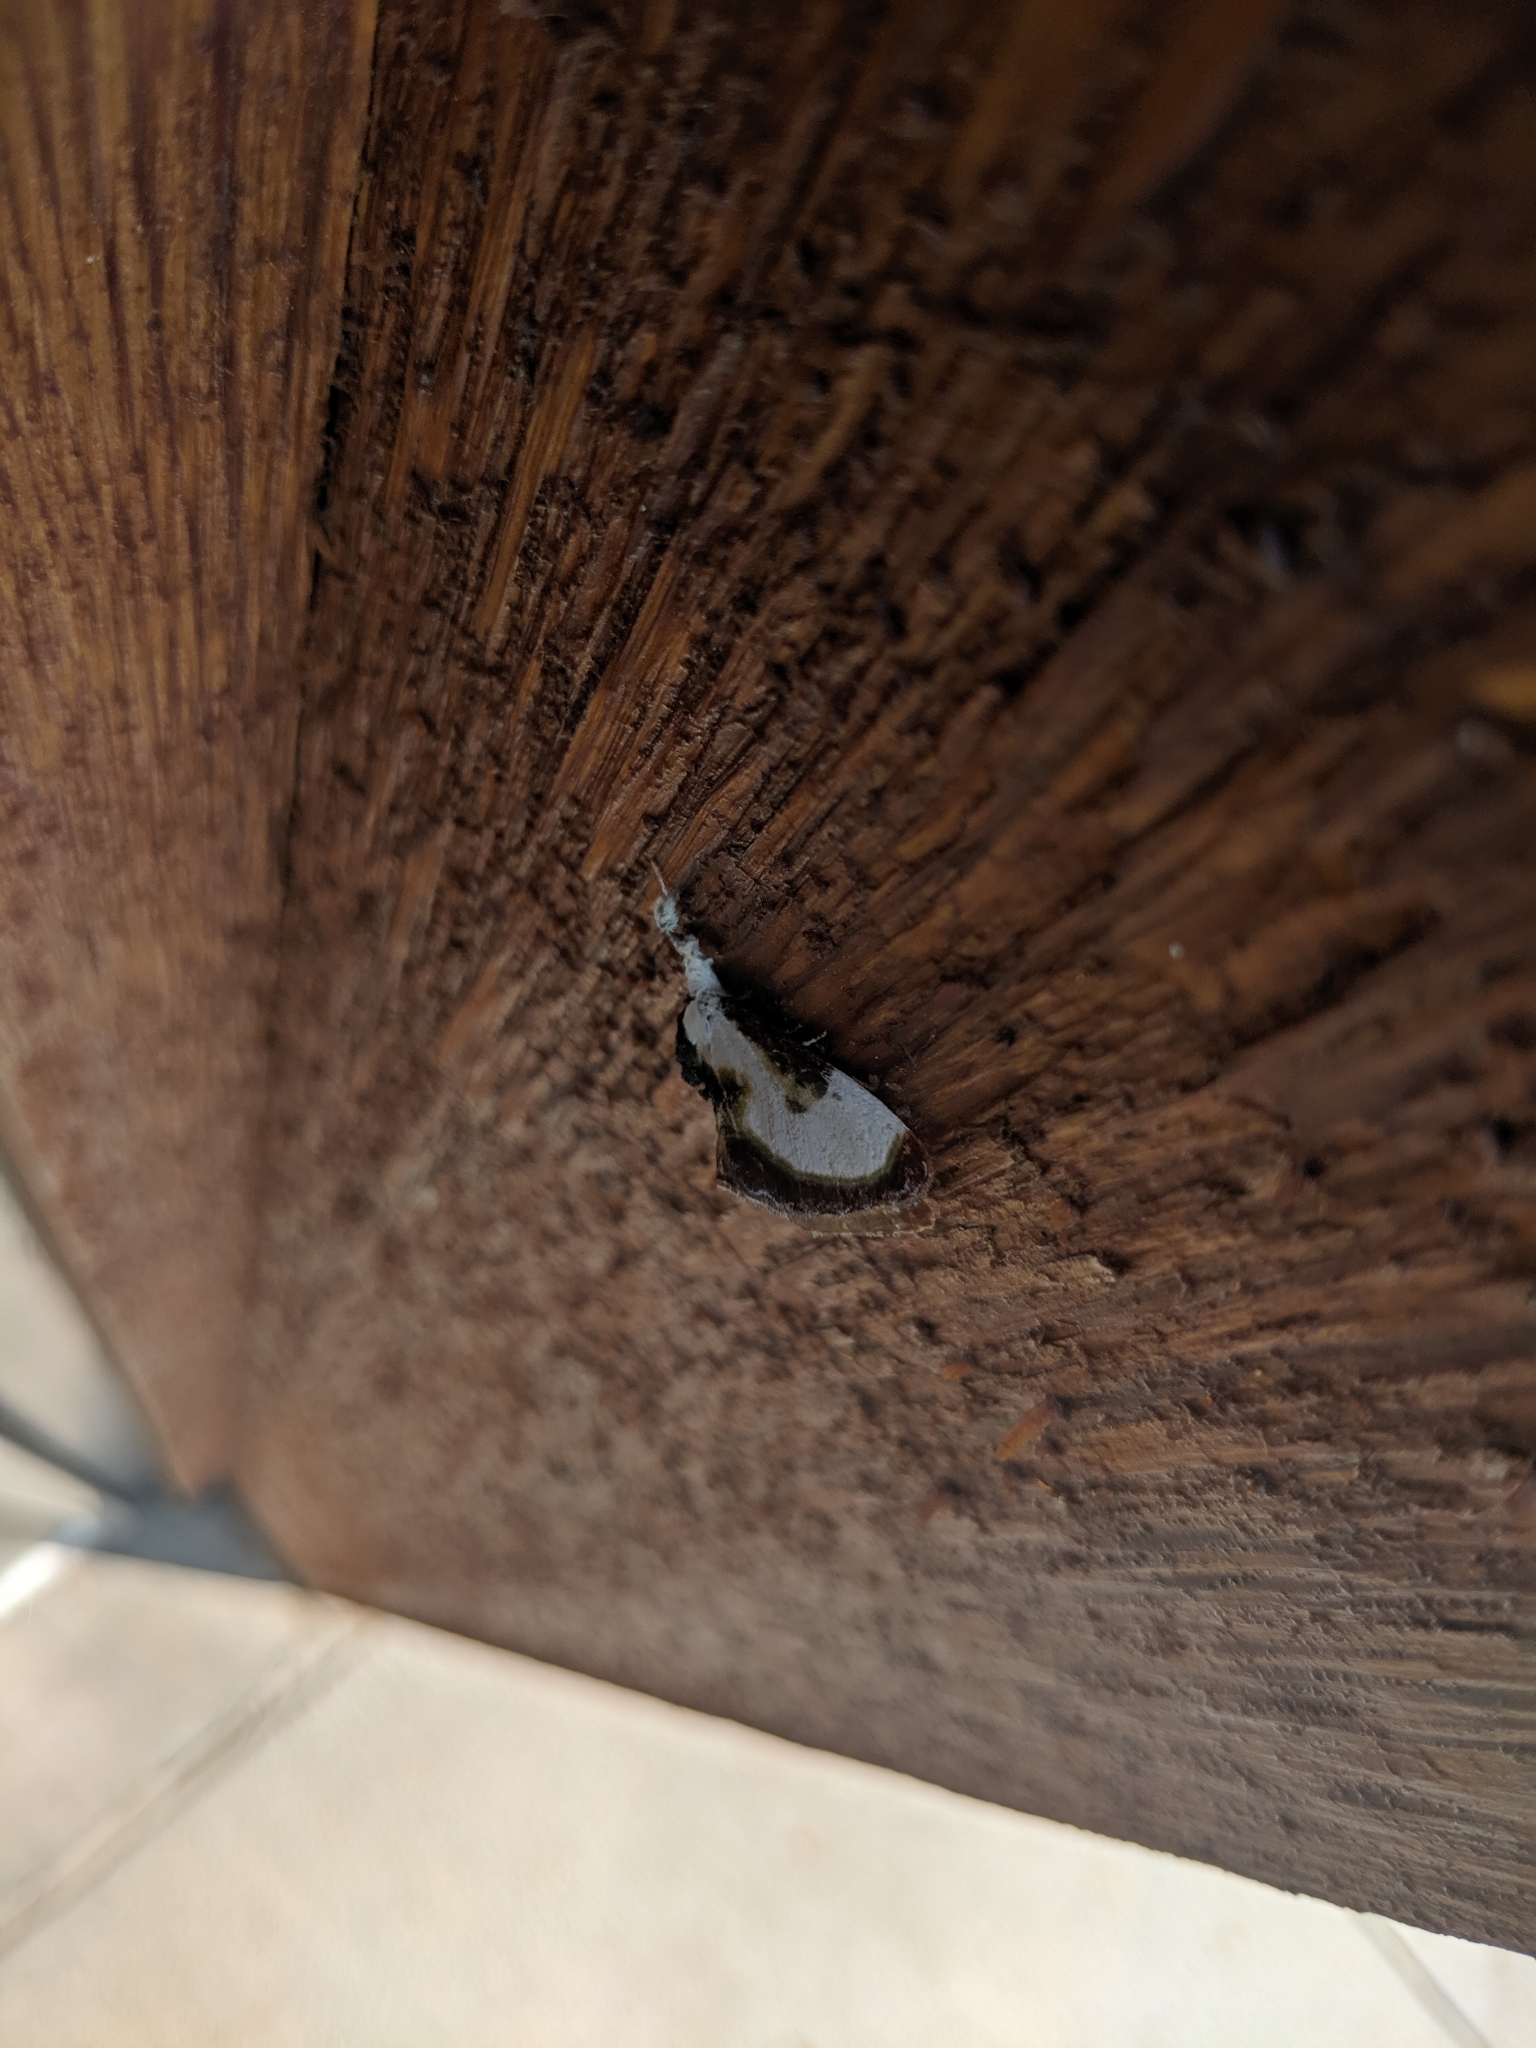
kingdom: Animalia
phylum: Arthropoda
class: Insecta
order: Lepidoptera
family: Noctuidae
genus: Eudryas
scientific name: Eudryas grata
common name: Beautiful wood-nymph
